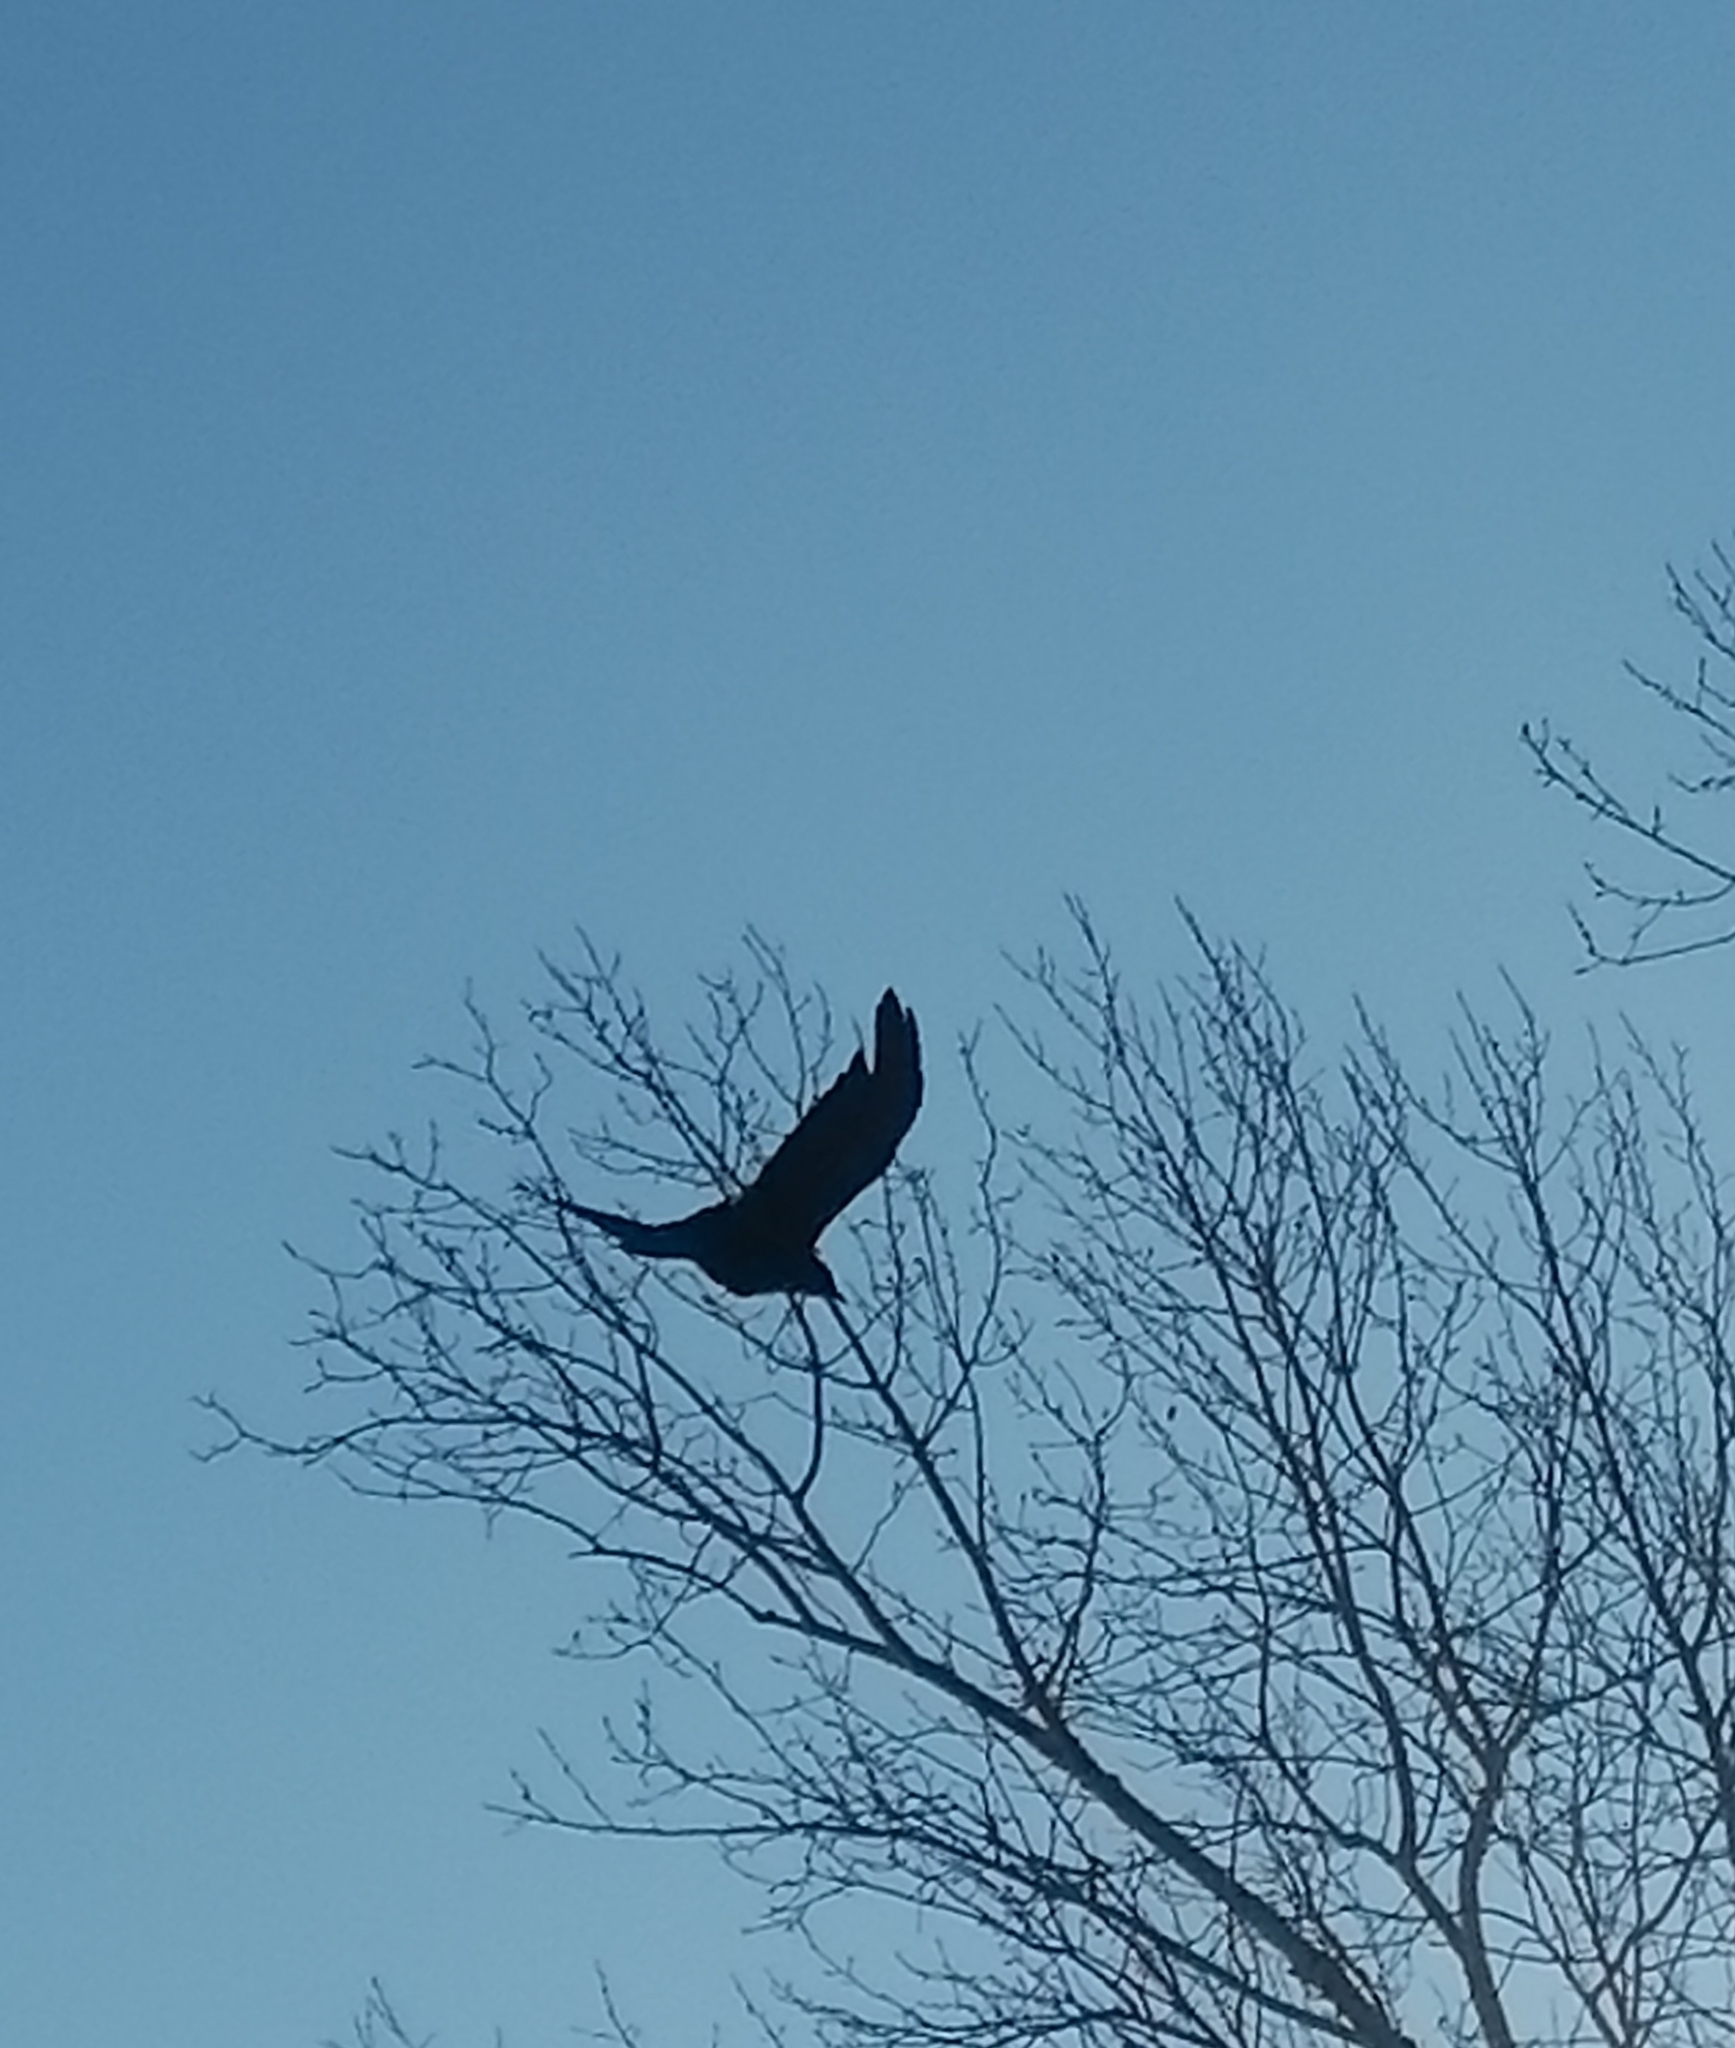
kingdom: Animalia
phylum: Chordata
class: Aves
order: Passeriformes
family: Corvidae
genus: Corvus
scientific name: Corvus corone
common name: Carrion crow
